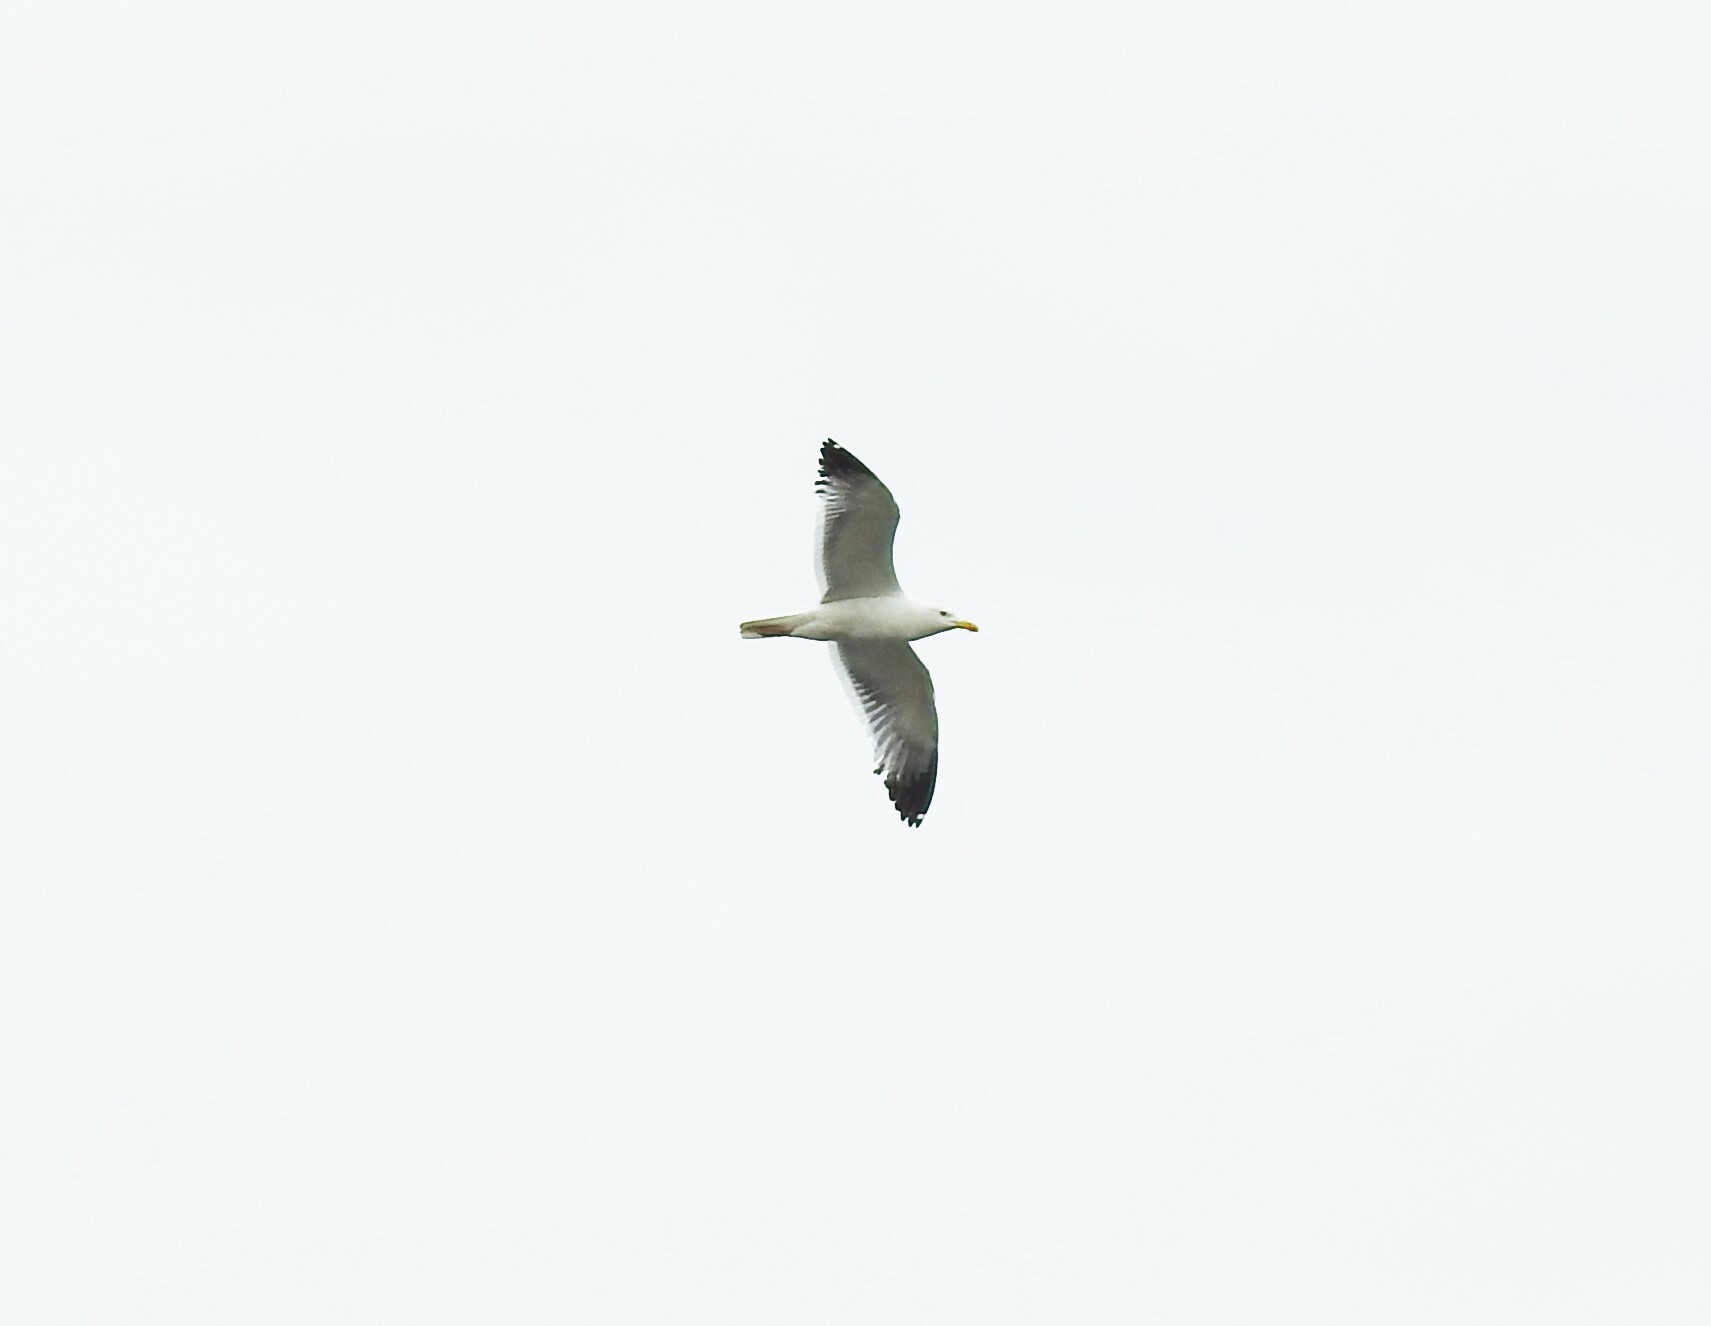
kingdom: Animalia
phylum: Chordata
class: Aves
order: Charadriiformes
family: Laridae
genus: Larus
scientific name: Larus fuscus
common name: Lesser black-backed gull
